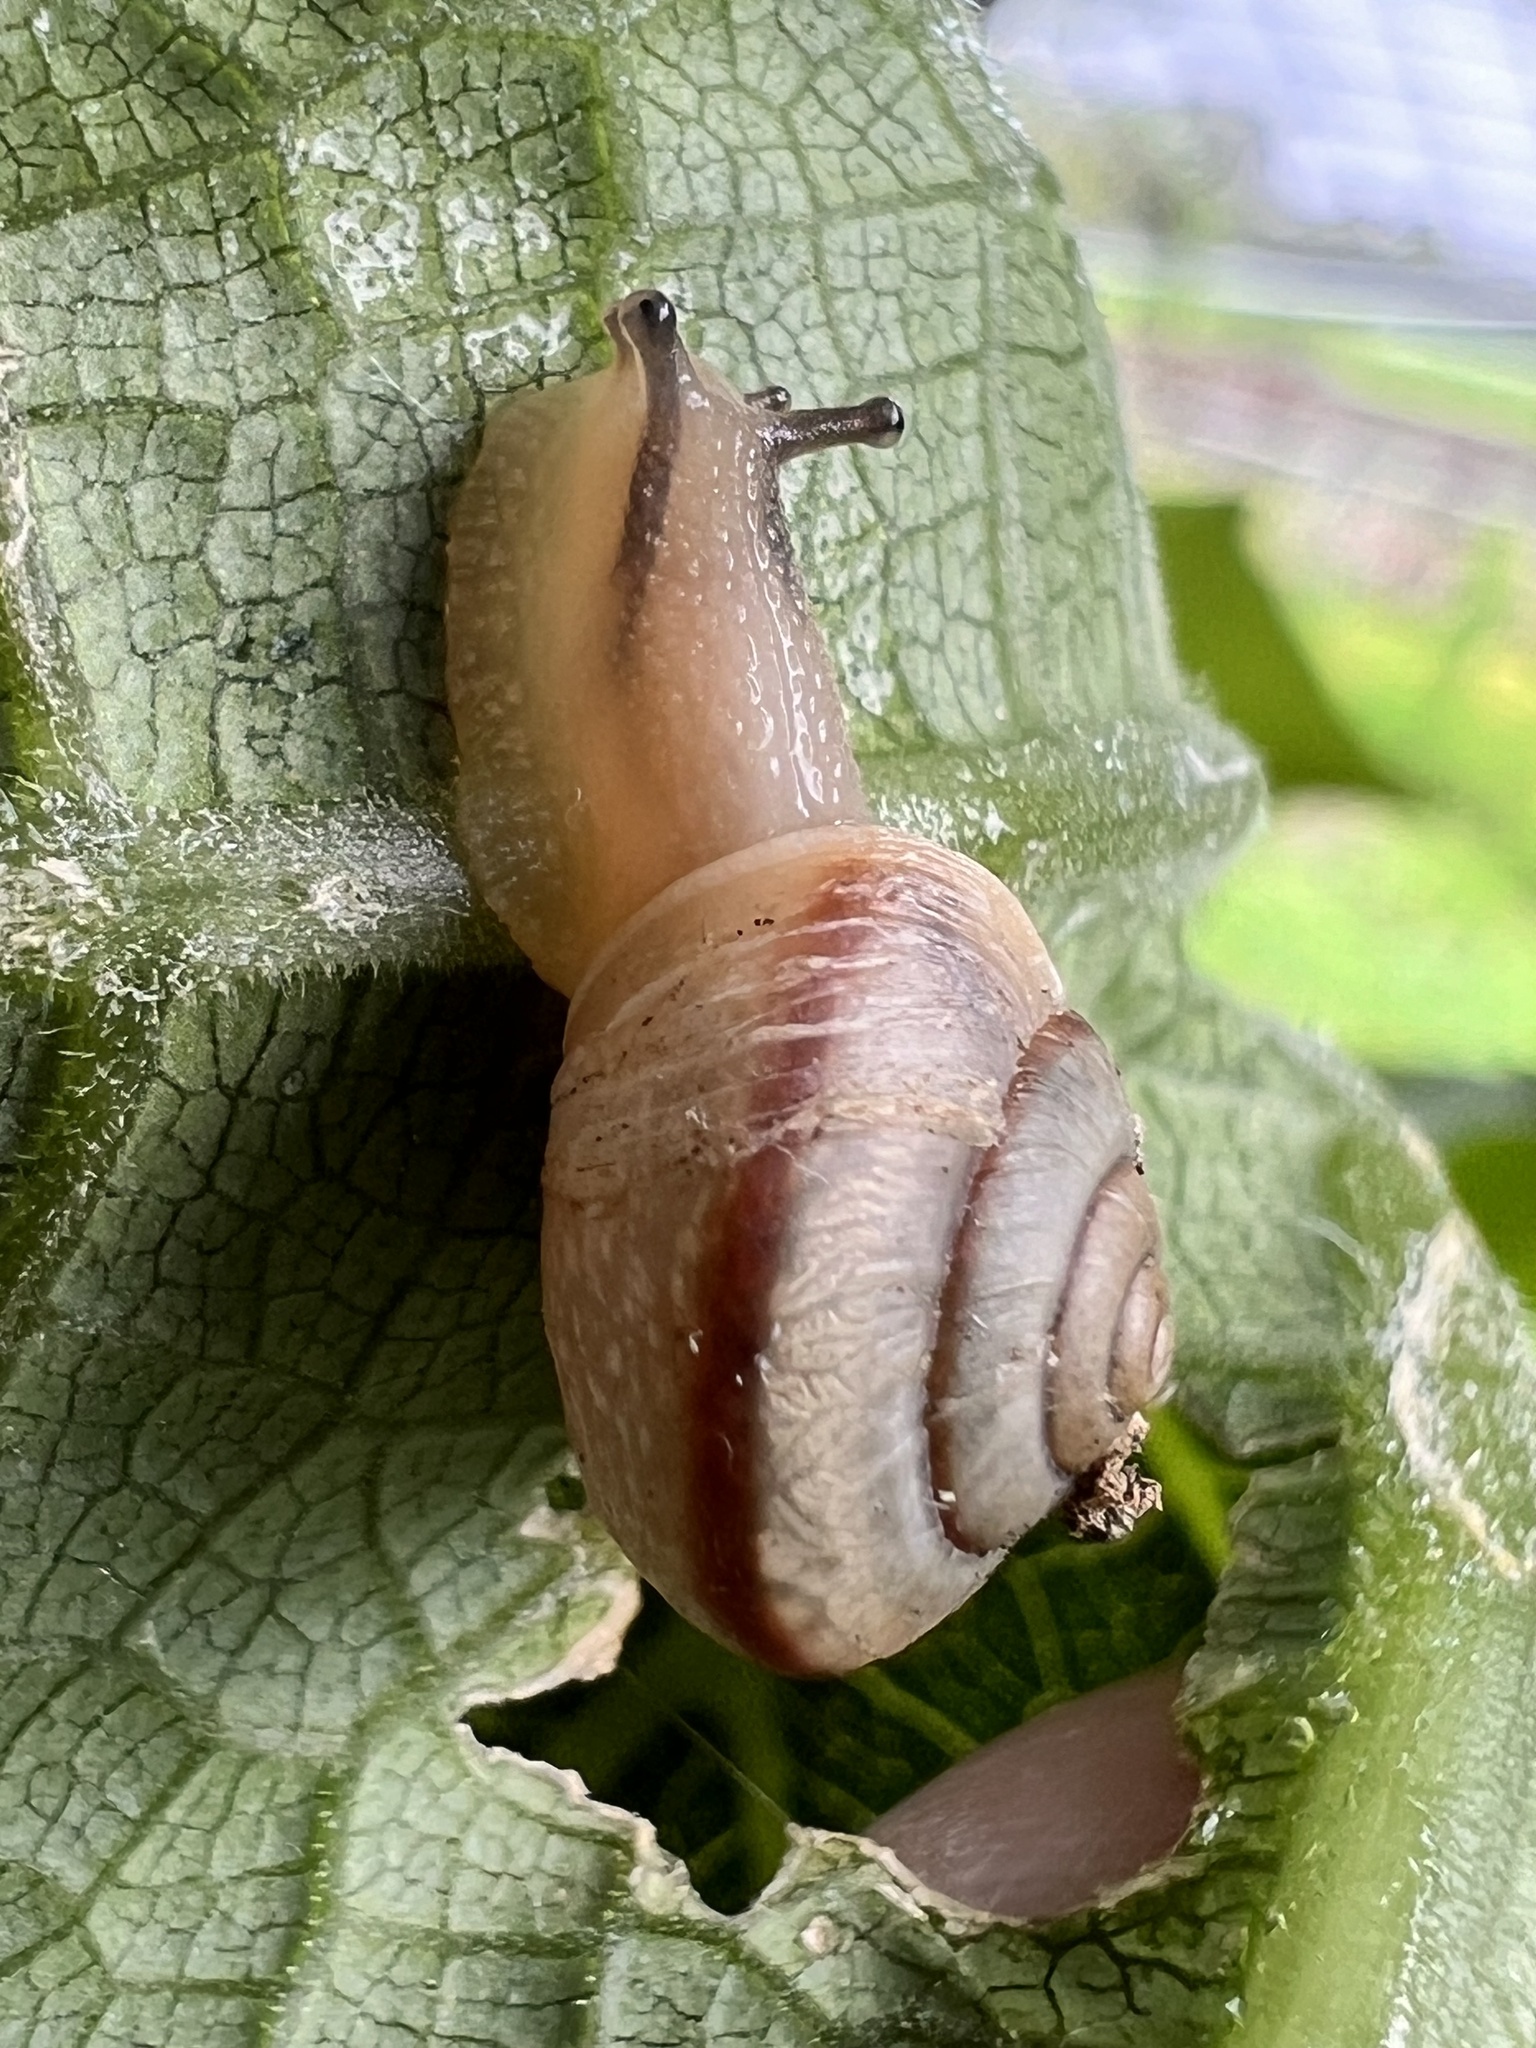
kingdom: Animalia
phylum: Mollusca
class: Gastropoda
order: Stylommatophora
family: Camaenidae
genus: Bradybaena
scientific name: Bradybaena similaris
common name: Asian trampsnail
